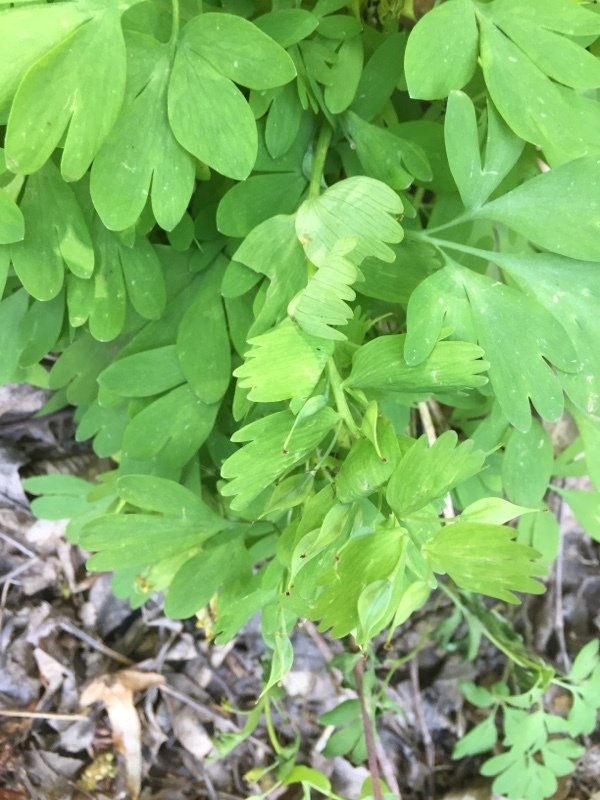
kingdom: Plantae
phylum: Tracheophyta
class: Magnoliopsida
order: Ranunculales
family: Papaveraceae
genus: Corydalis
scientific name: Corydalis solida
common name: Bird-in-a-bush
